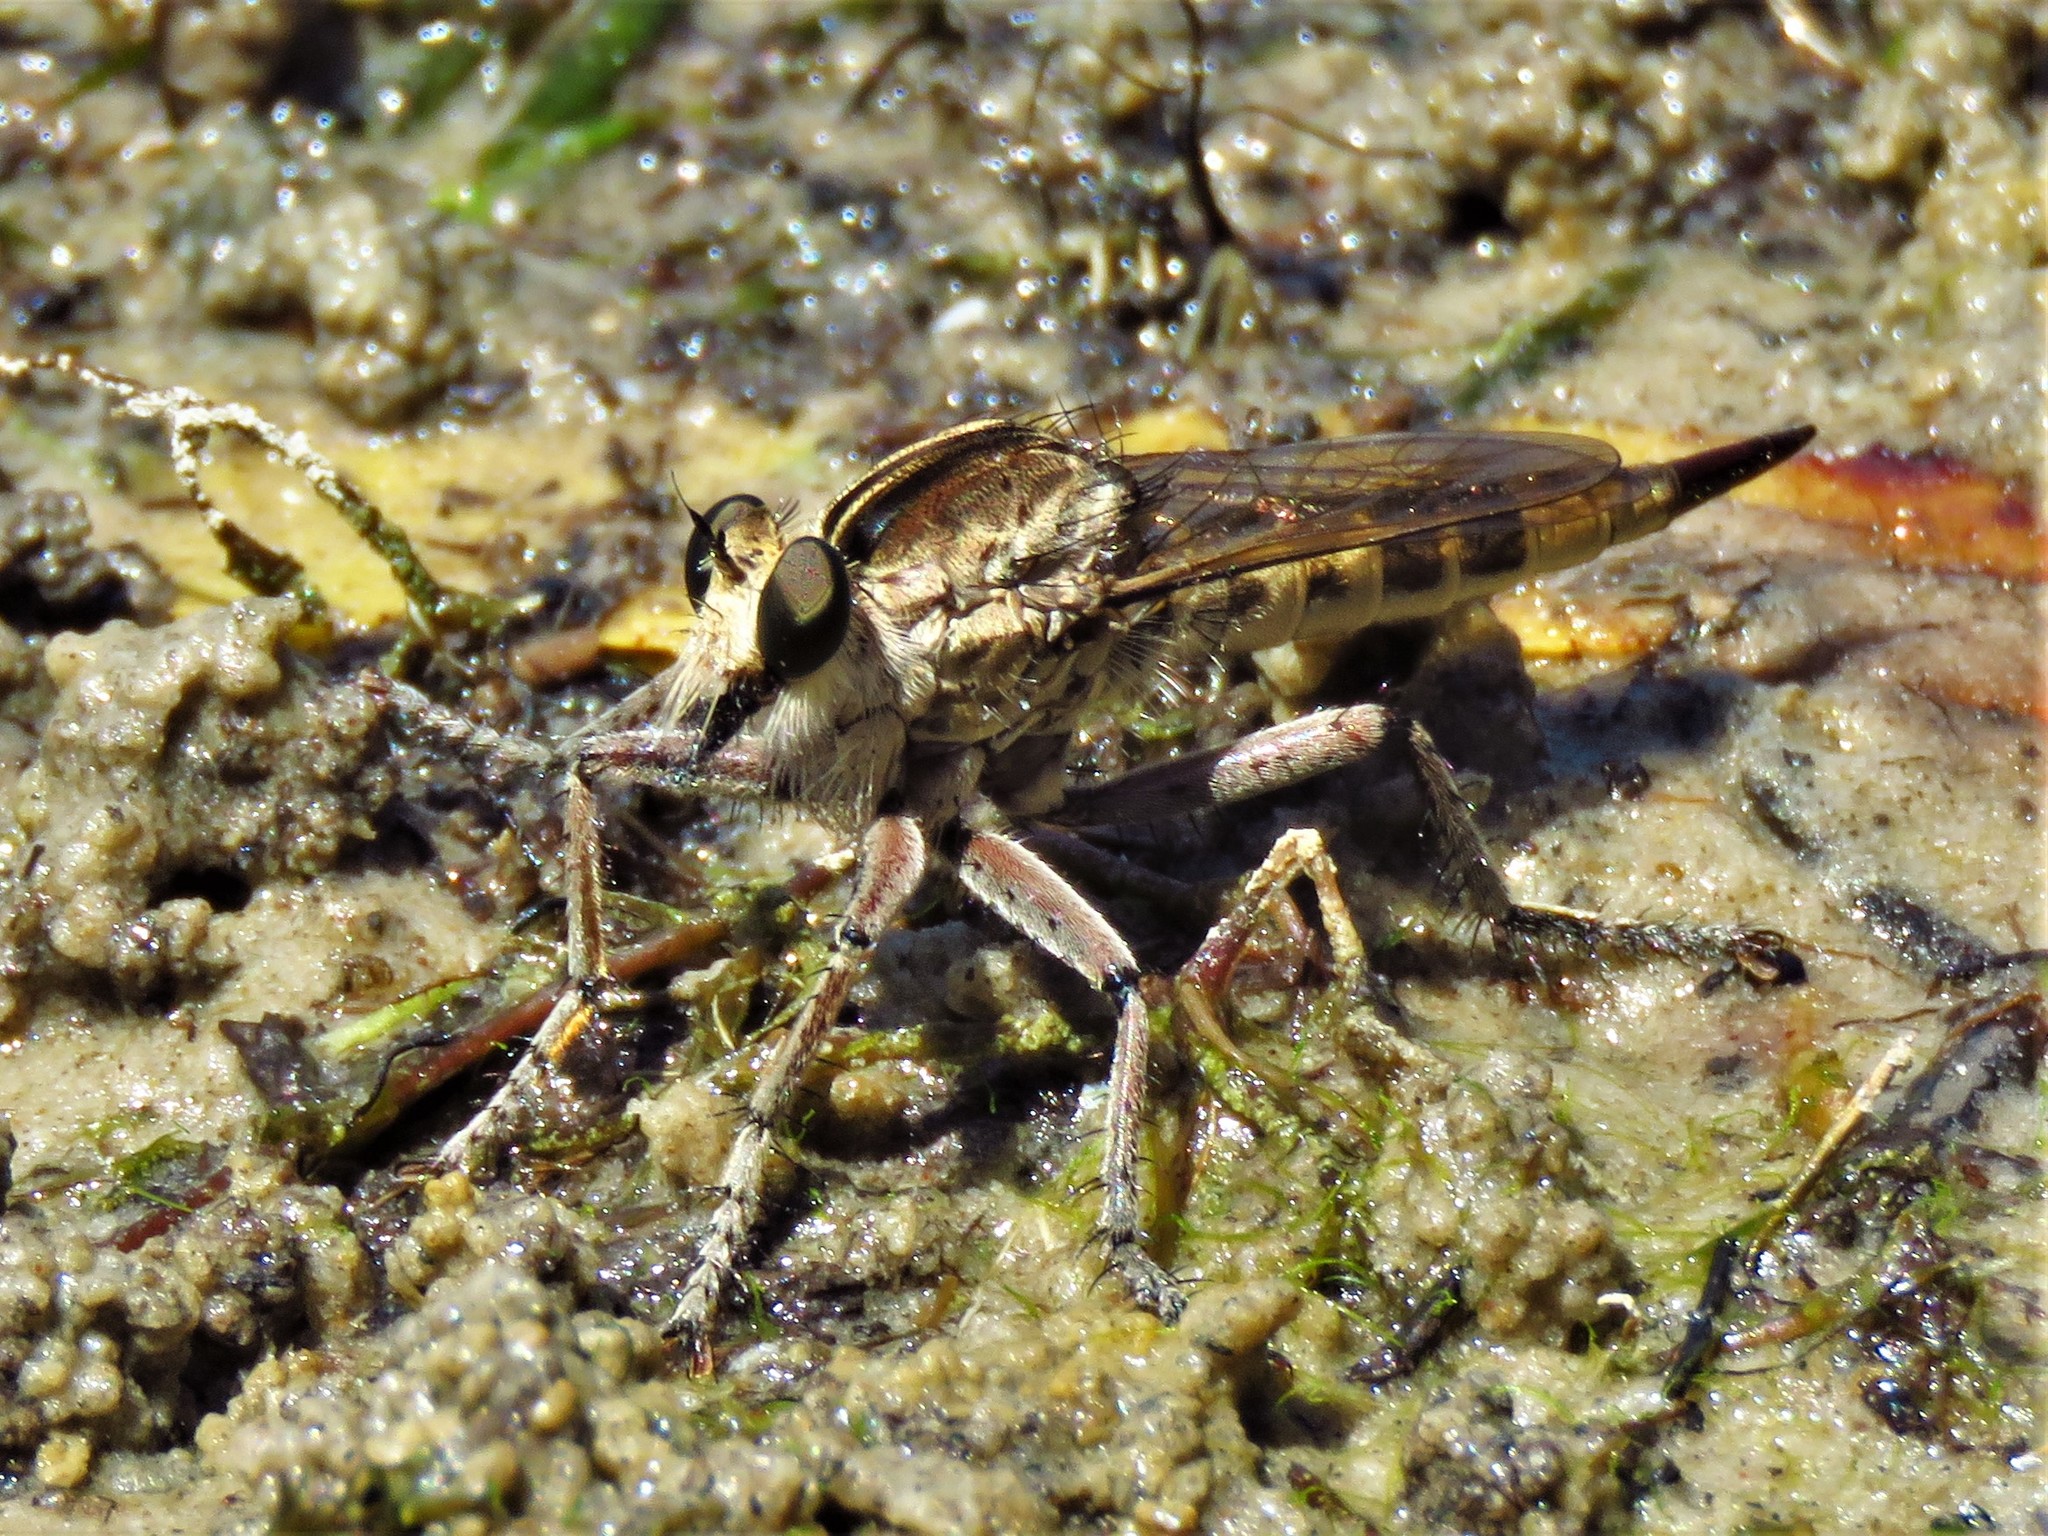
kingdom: Animalia
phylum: Arthropoda
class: Insecta
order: Diptera
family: Asilidae
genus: Triorla
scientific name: Triorla interrupta
